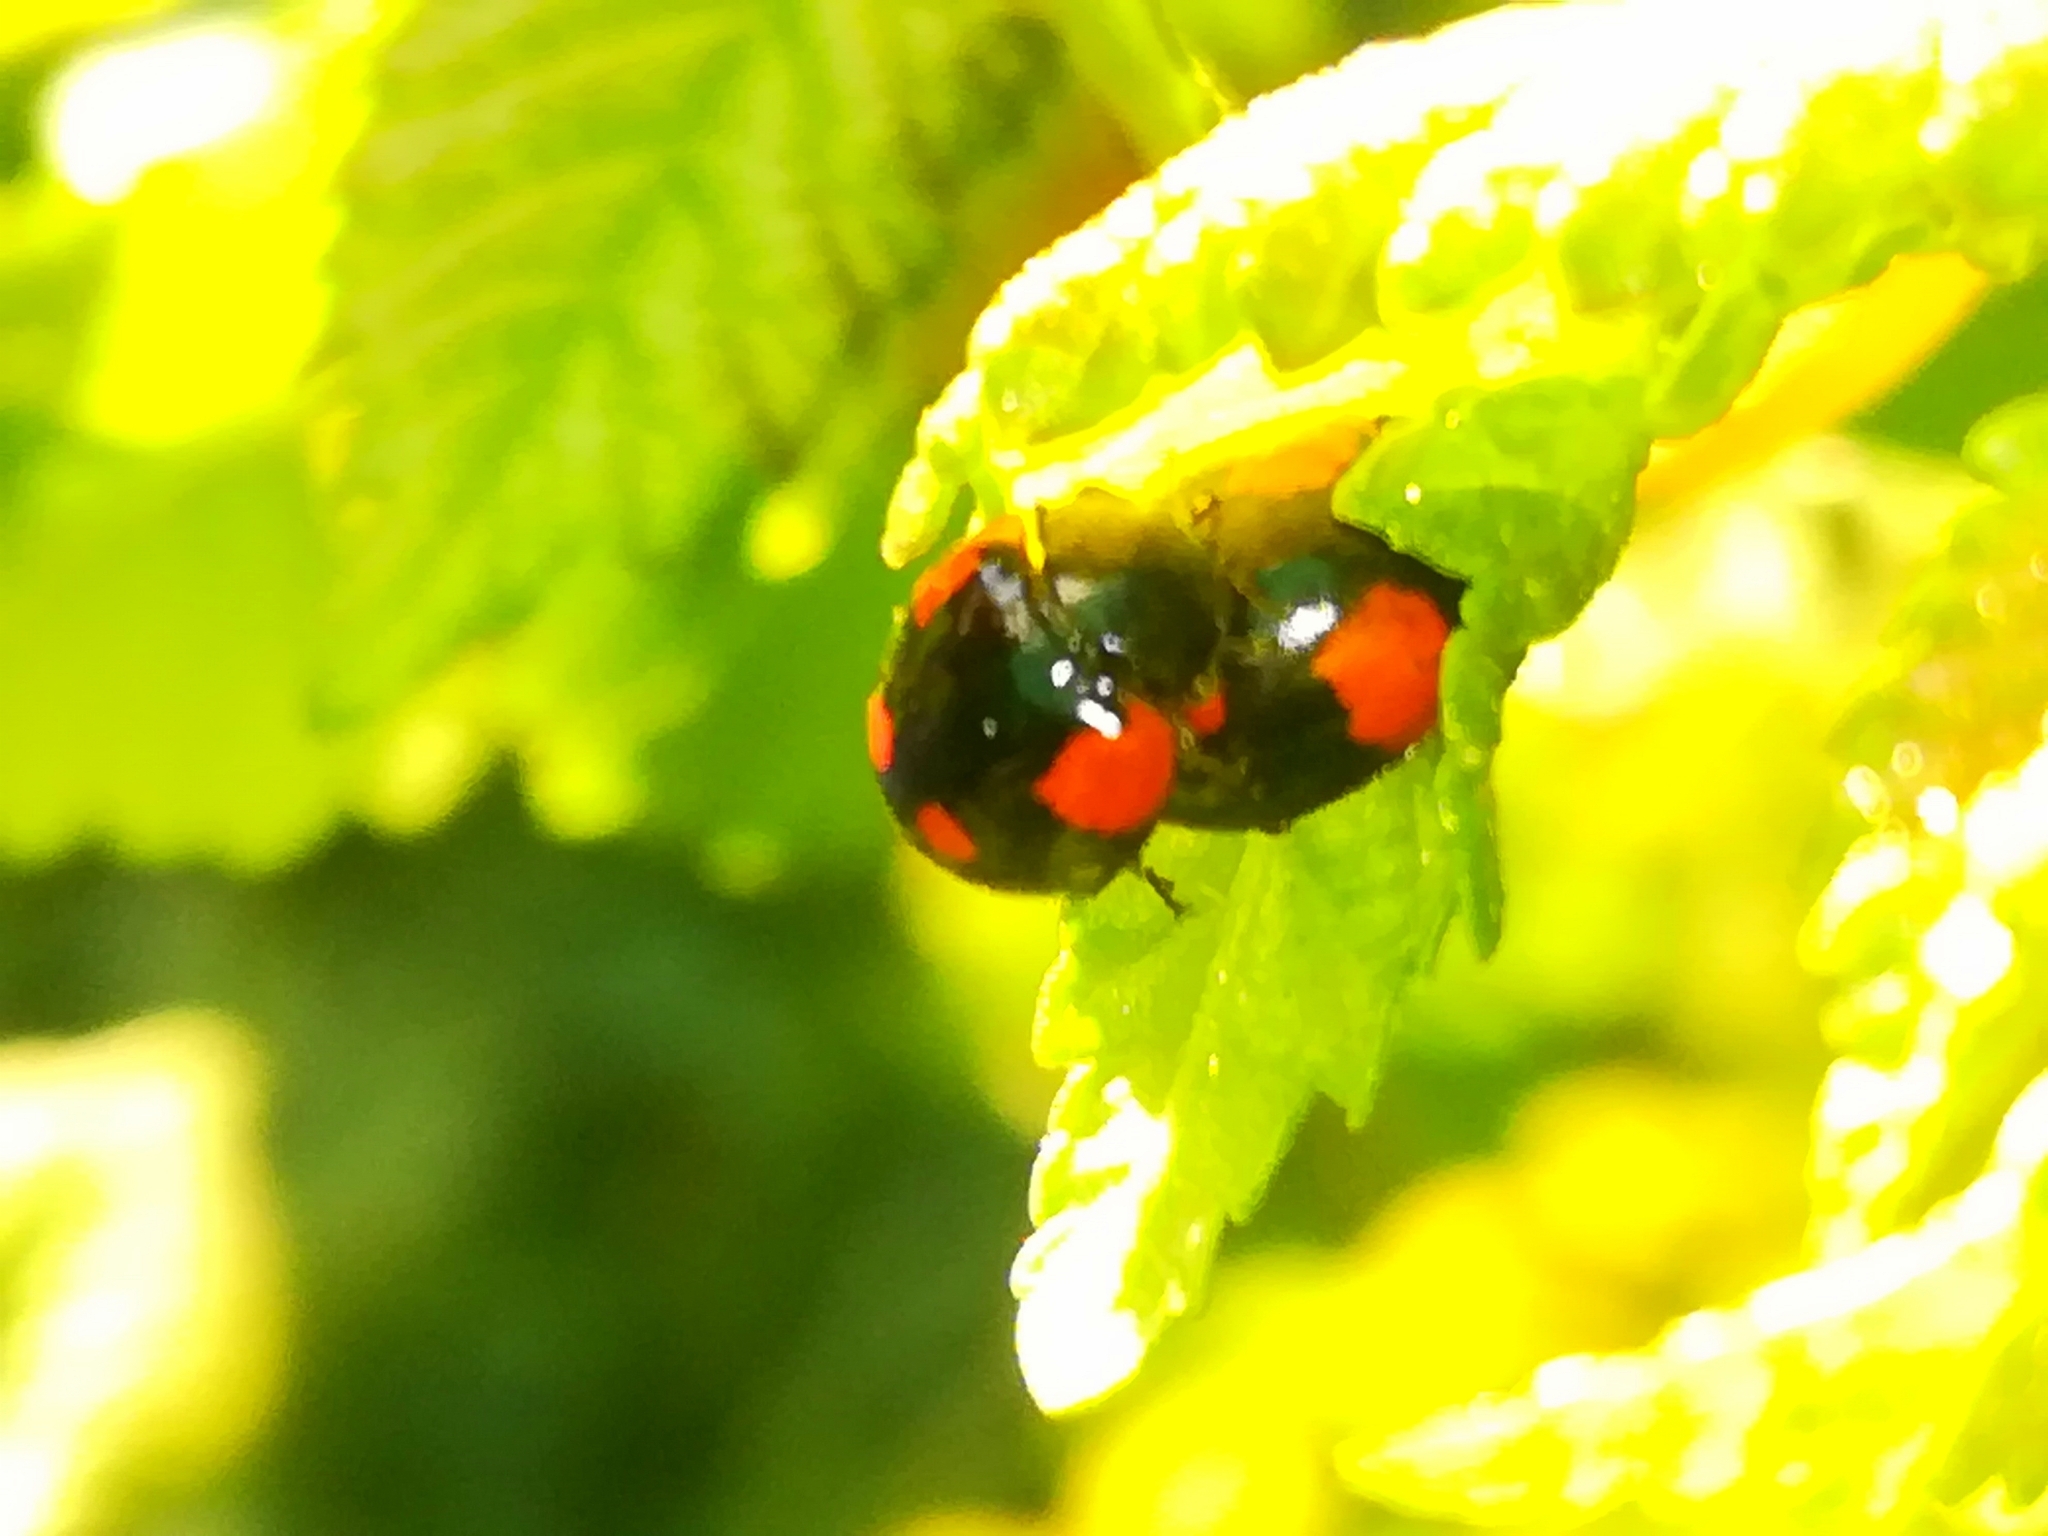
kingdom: Animalia
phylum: Arthropoda
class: Insecta
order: Coleoptera
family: Coccinellidae
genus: Adalia
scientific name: Adalia bipunctata
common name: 2-spot ladybird
